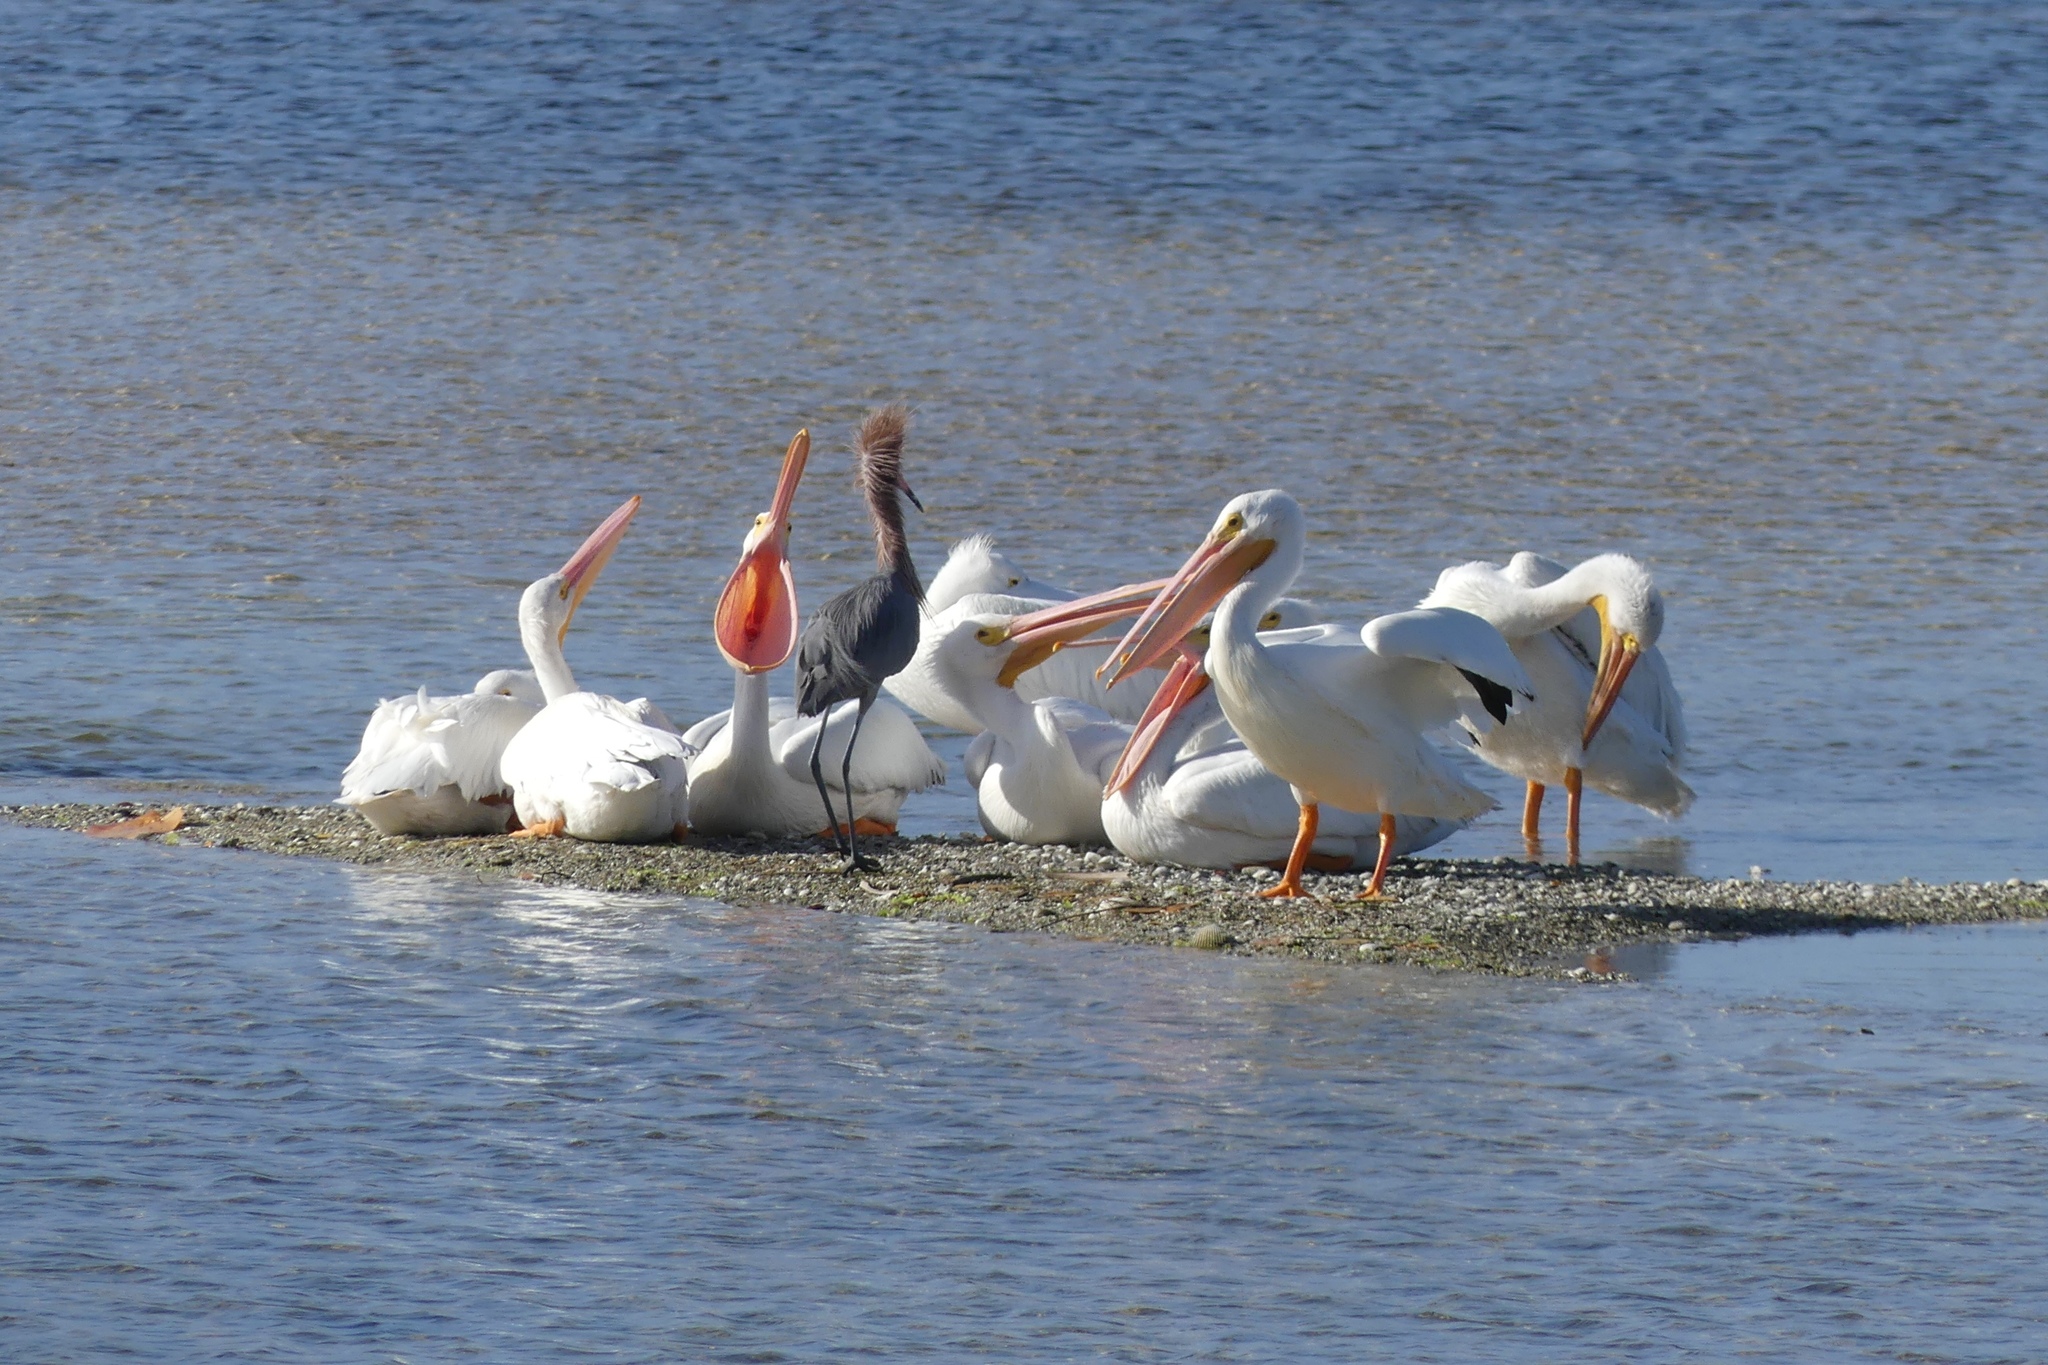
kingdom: Animalia
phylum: Chordata
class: Aves
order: Pelecaniformes
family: Pelecanidae
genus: Pelecanus
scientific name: Pelecanus erythrorhynchos
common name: American white pelican
